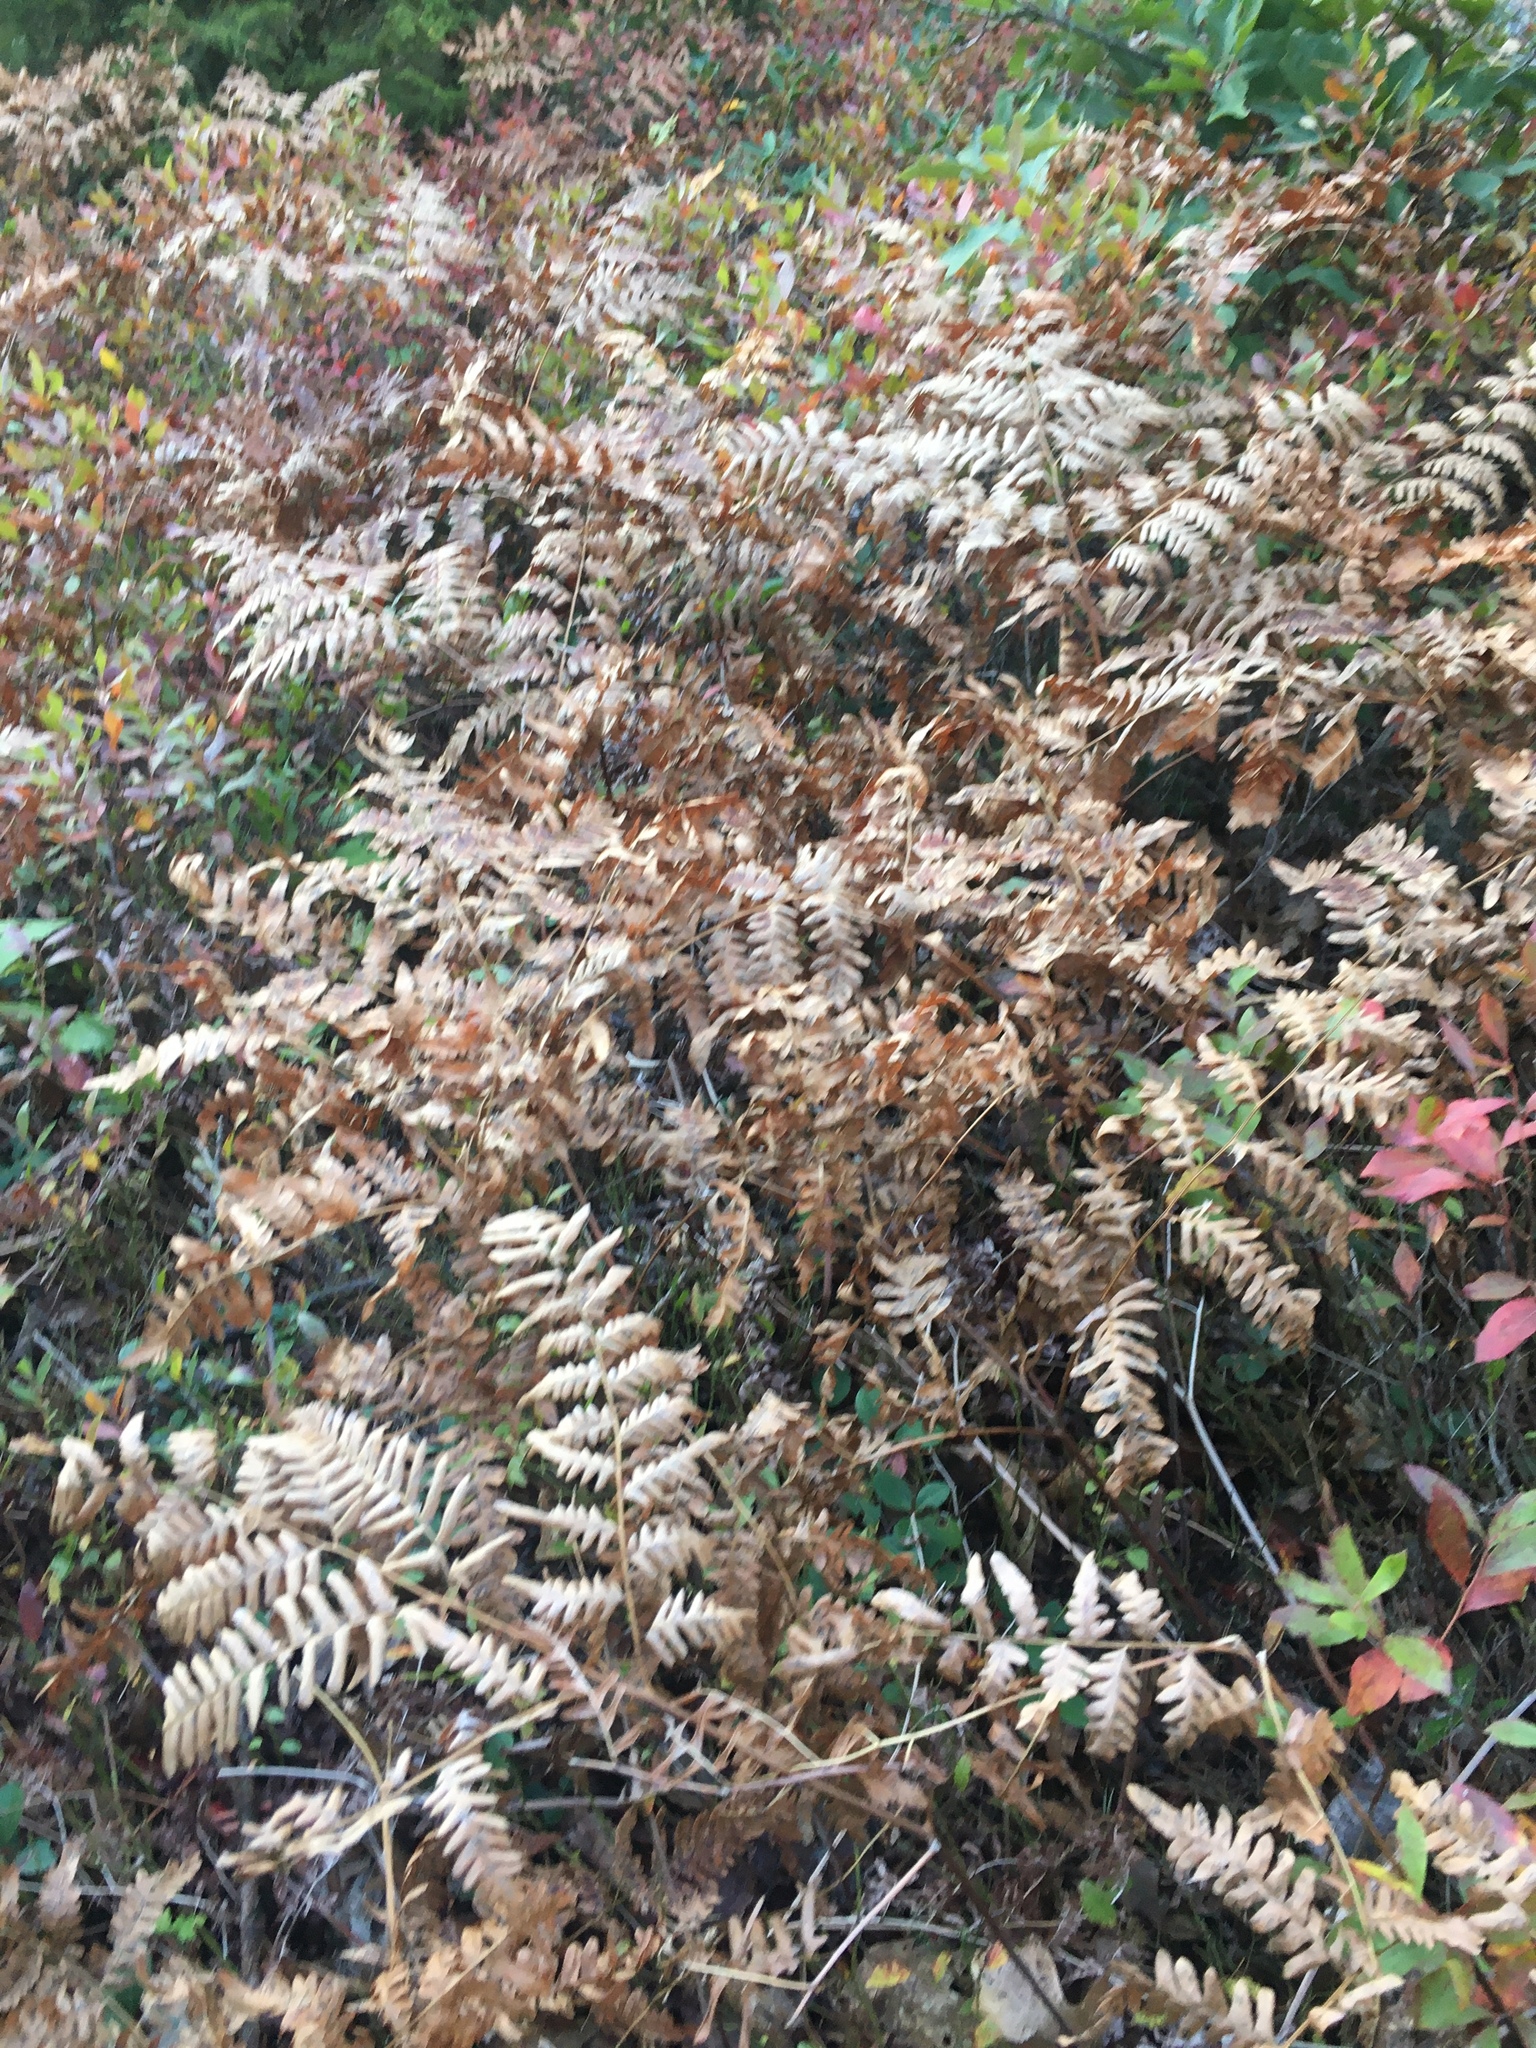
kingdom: Plantae
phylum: Tracheophyta
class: Polypodiopsida
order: Polypodiales
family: Dennstaedtiaceae
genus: Pteridium
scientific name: Pteridium aquilinum
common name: Bracken
